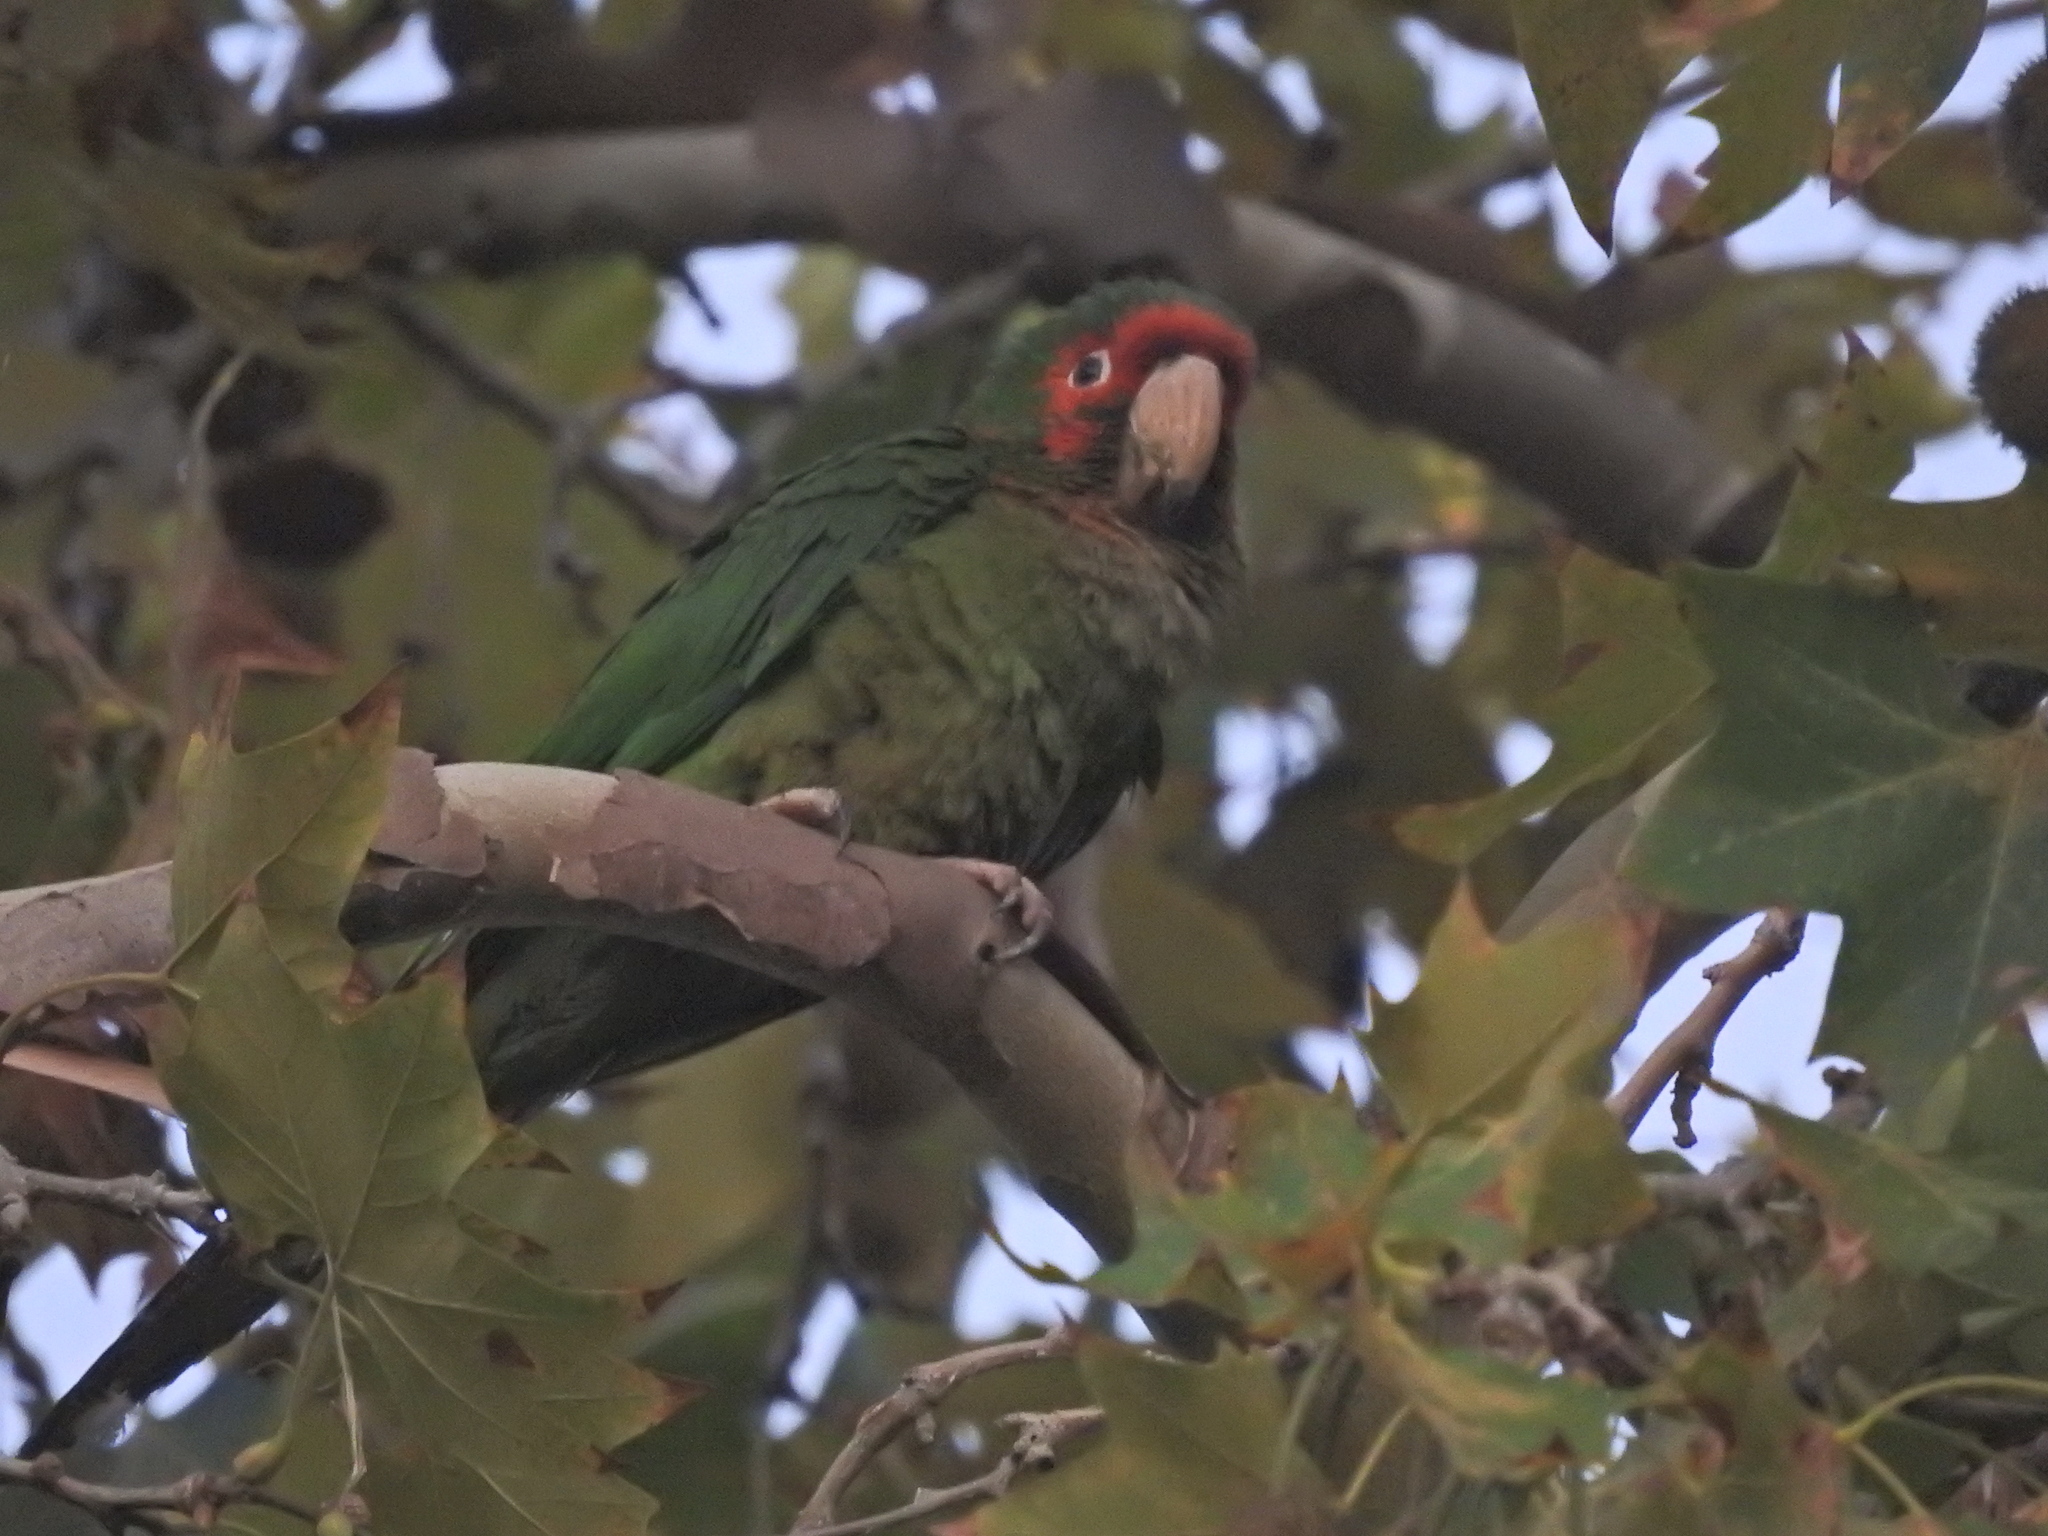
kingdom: Animalia
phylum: Chordata
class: Aves
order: Psittaciformes
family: Psittacidae
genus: Aratinga
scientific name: Aratinga mitrata
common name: Mitred parakeet
